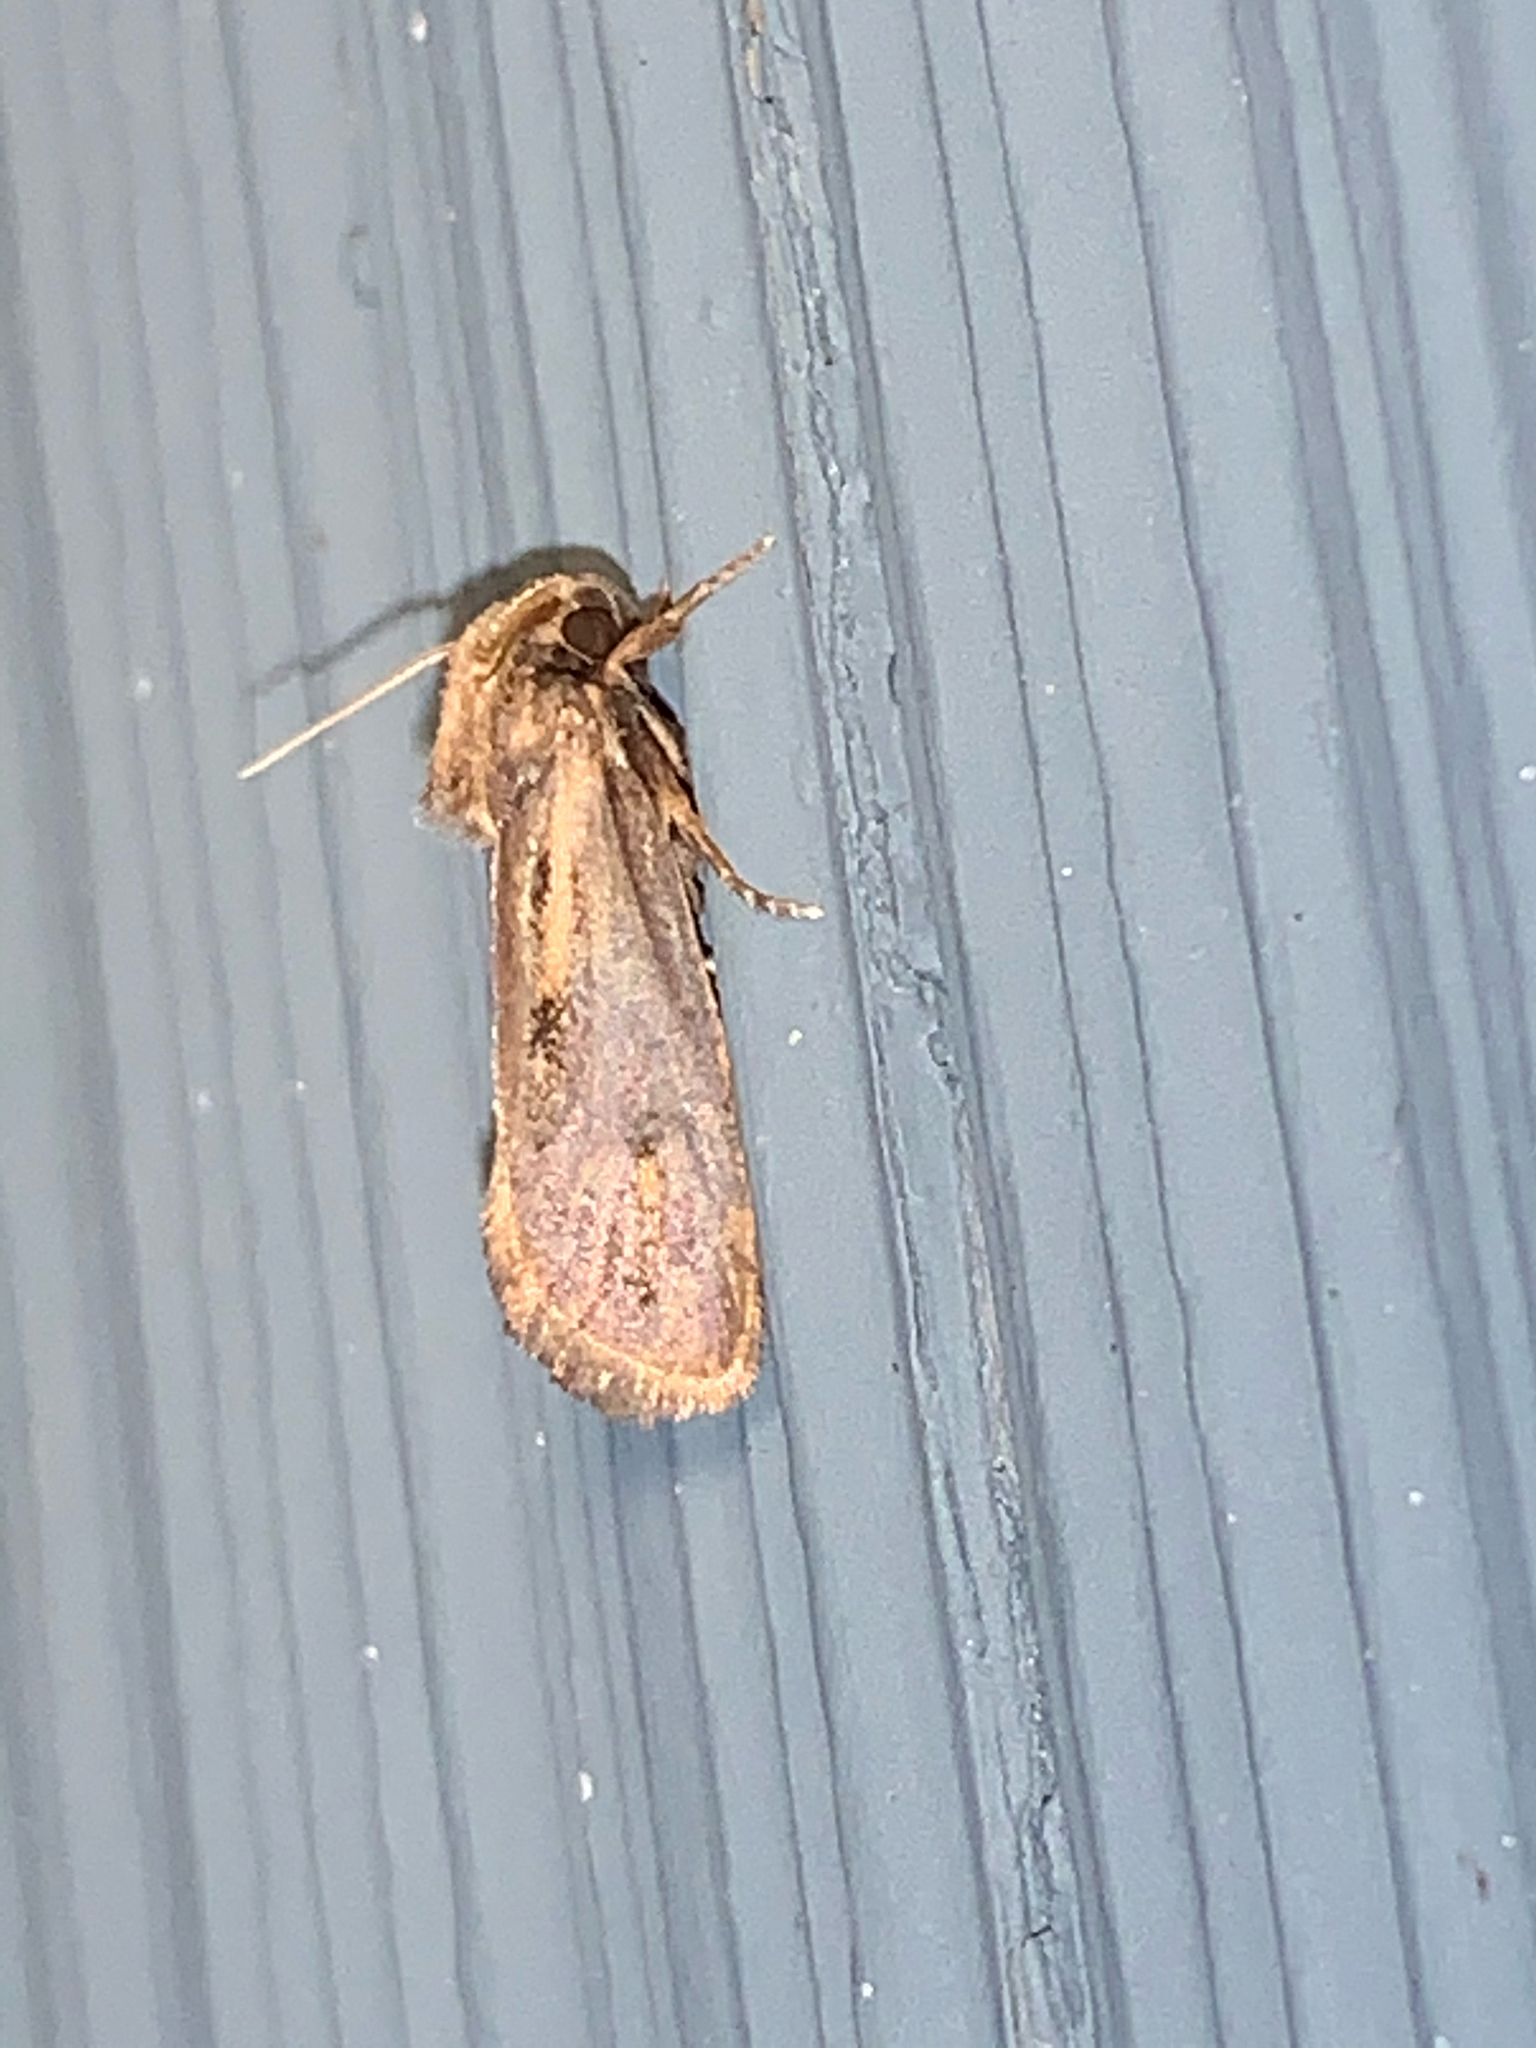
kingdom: Animalia
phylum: Arthropoda
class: Insecta
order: Lepidoptera
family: Tineidae
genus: Acrolophus
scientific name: Acrolophus popeanella
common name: Clemens' grass tubeworm moth
